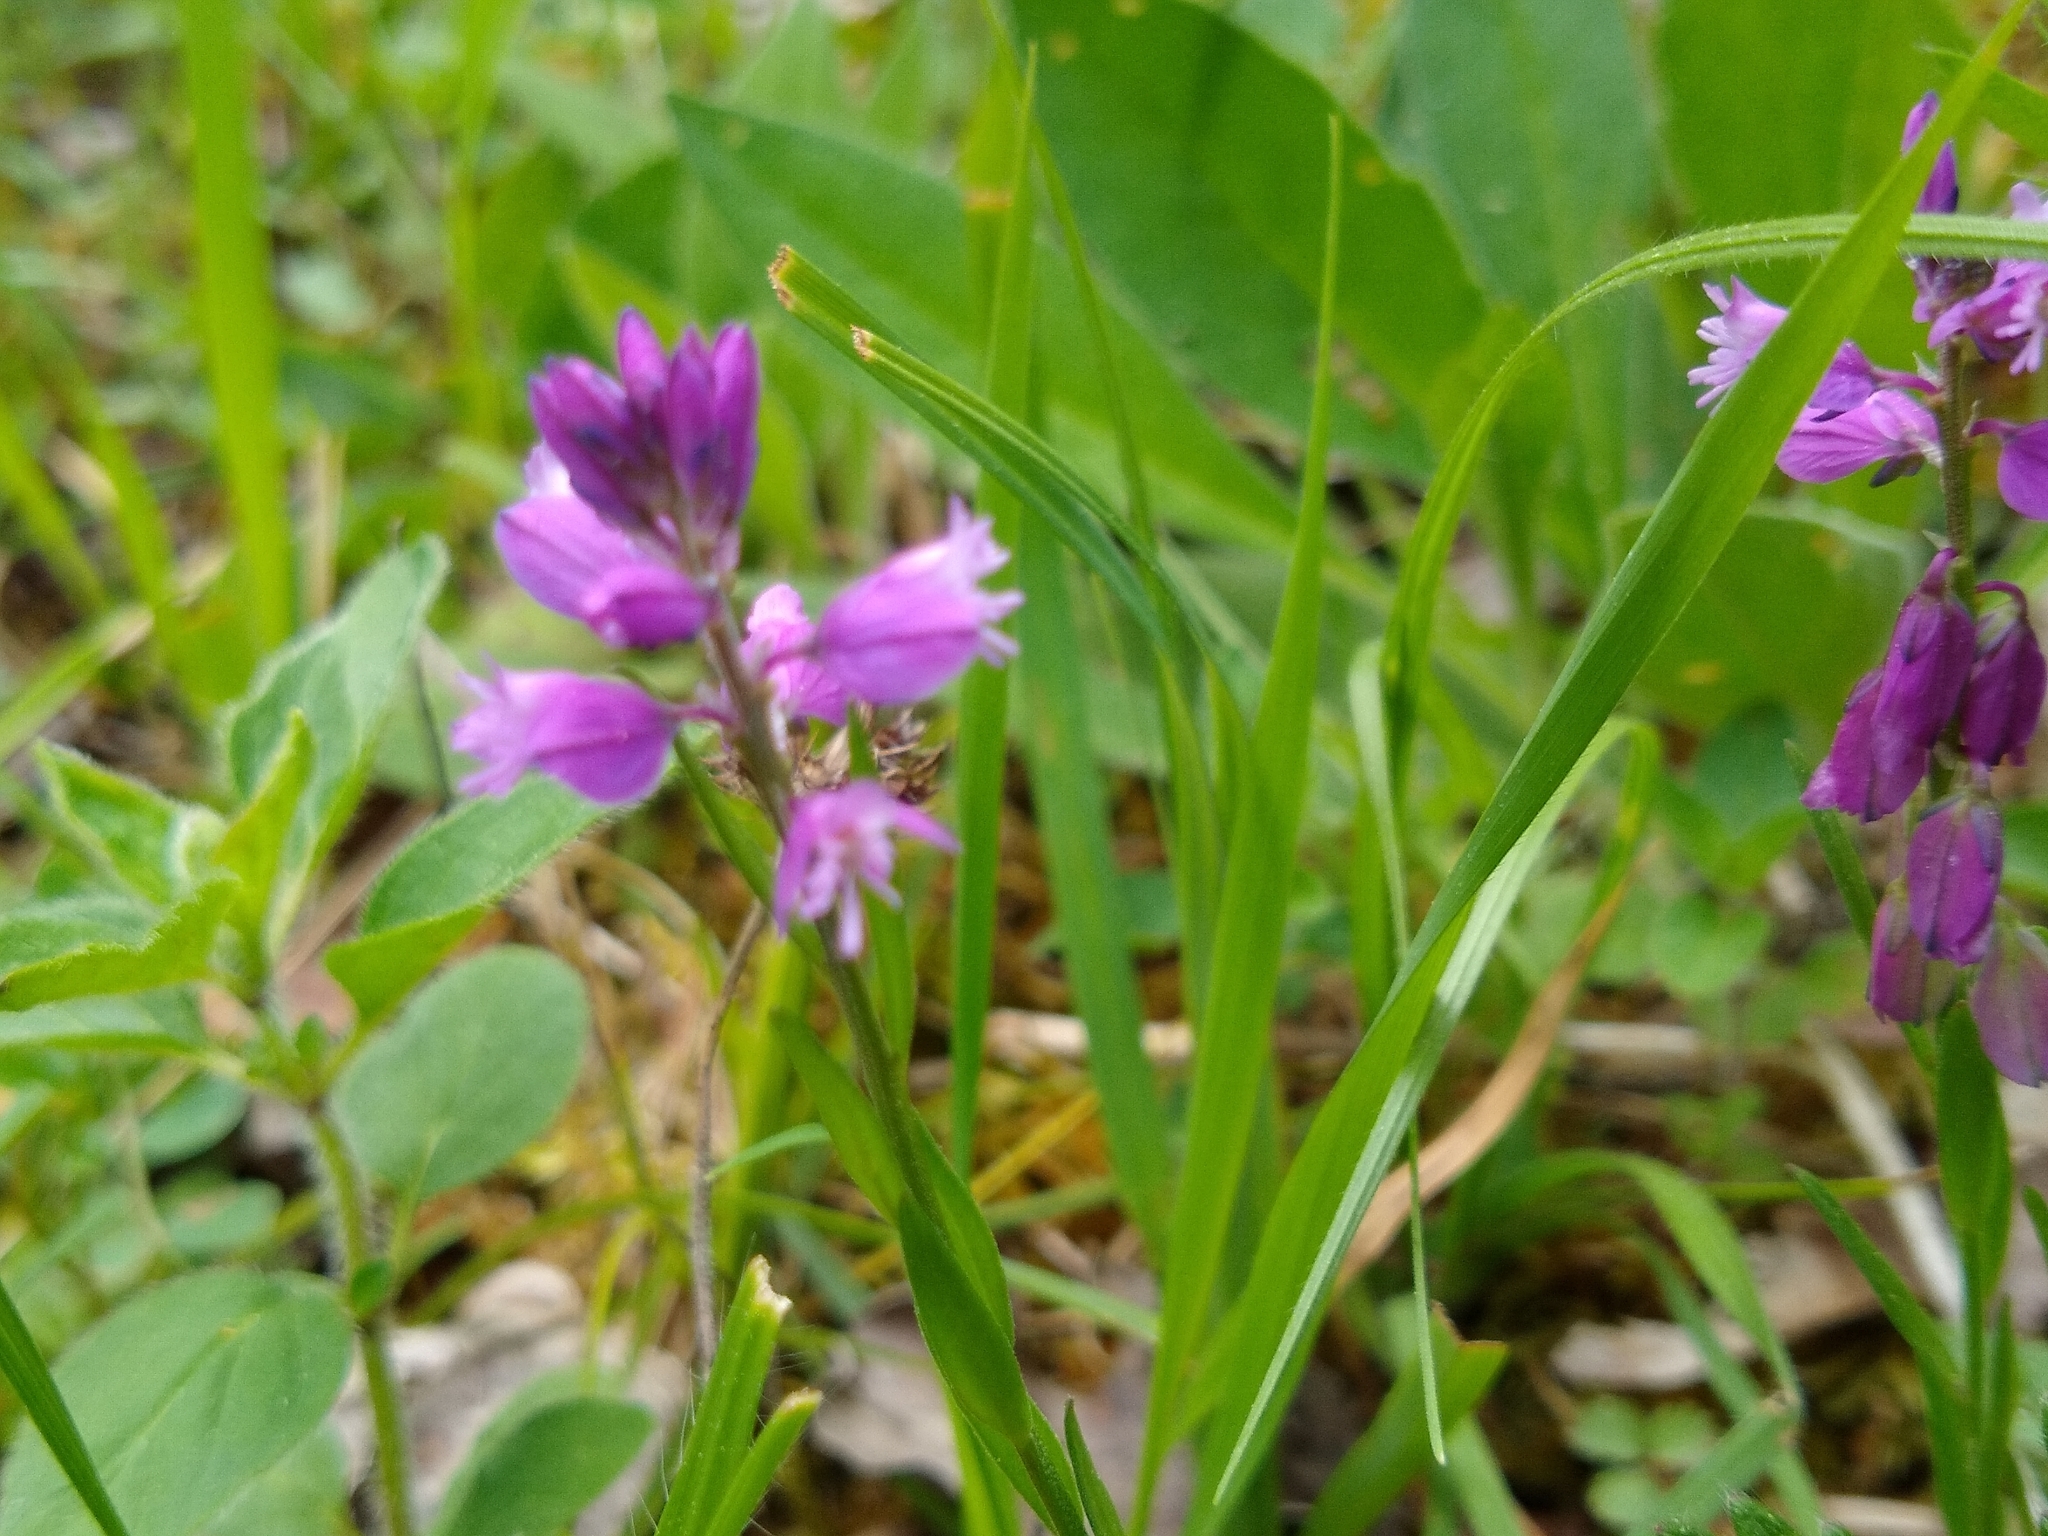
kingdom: Plantae
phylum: Tracheophyta
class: Magnoliopsida
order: Fabales
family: Polygalaceae
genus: Polygala
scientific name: Polygala comosa
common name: Tufted milkwort
